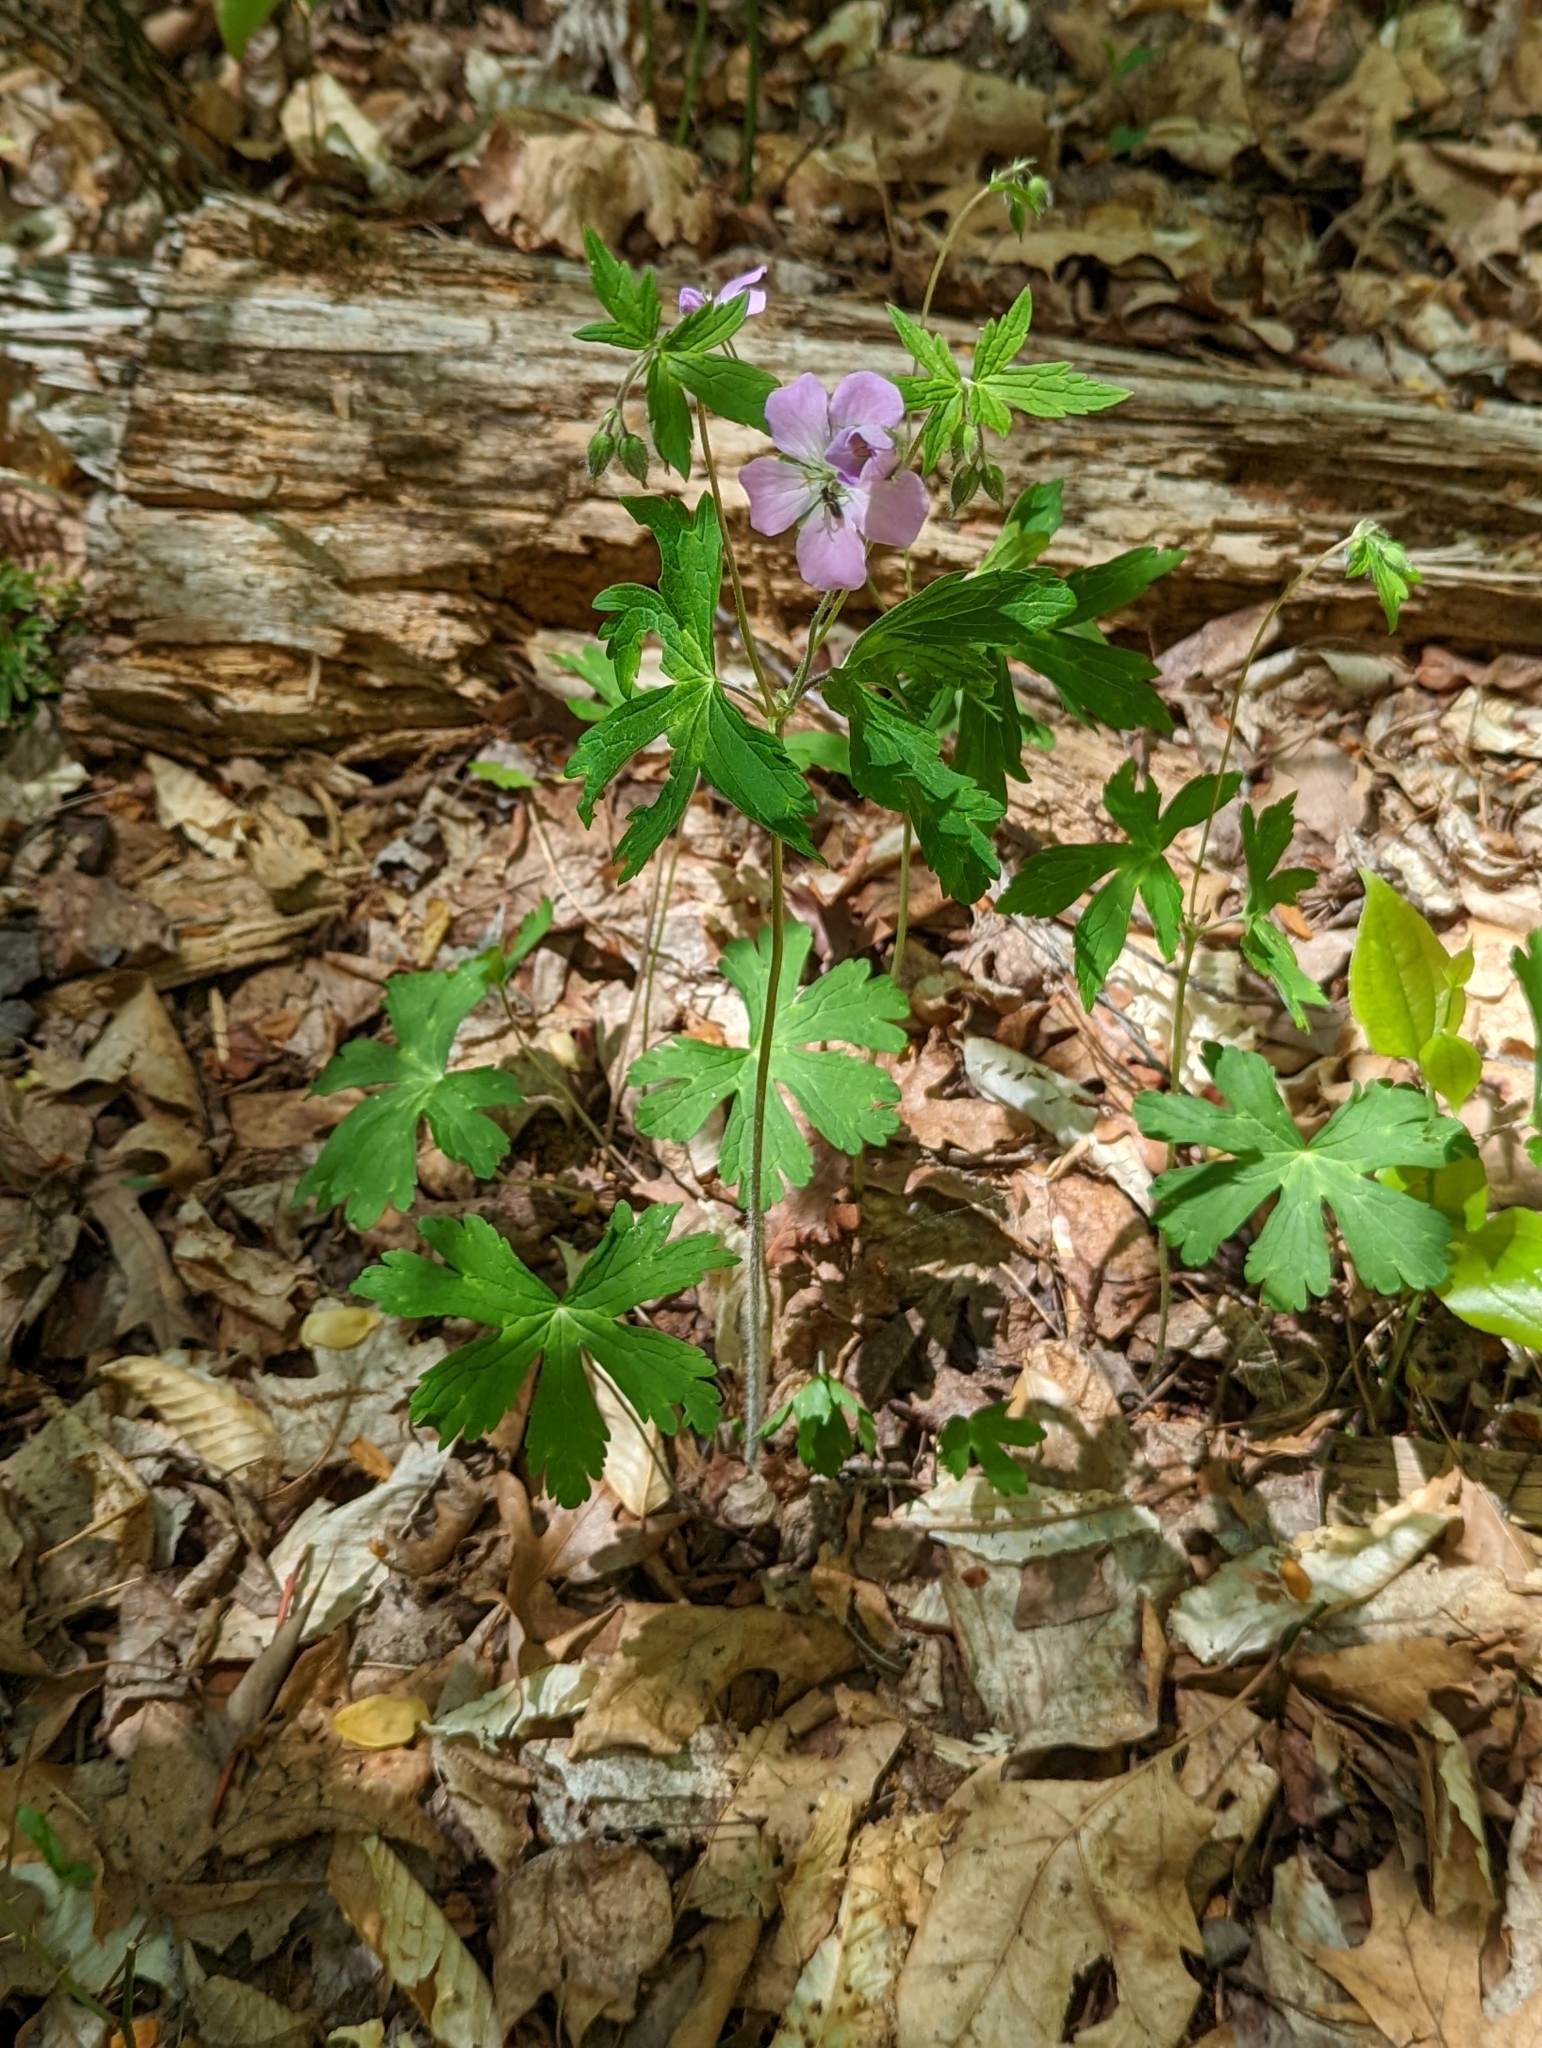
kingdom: Plantae
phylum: Tracheophyta
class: Magnoliopsida
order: Geraniales
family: Geraniaceae
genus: Geranium
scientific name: Geranium maculatum
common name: Spotted geranium
